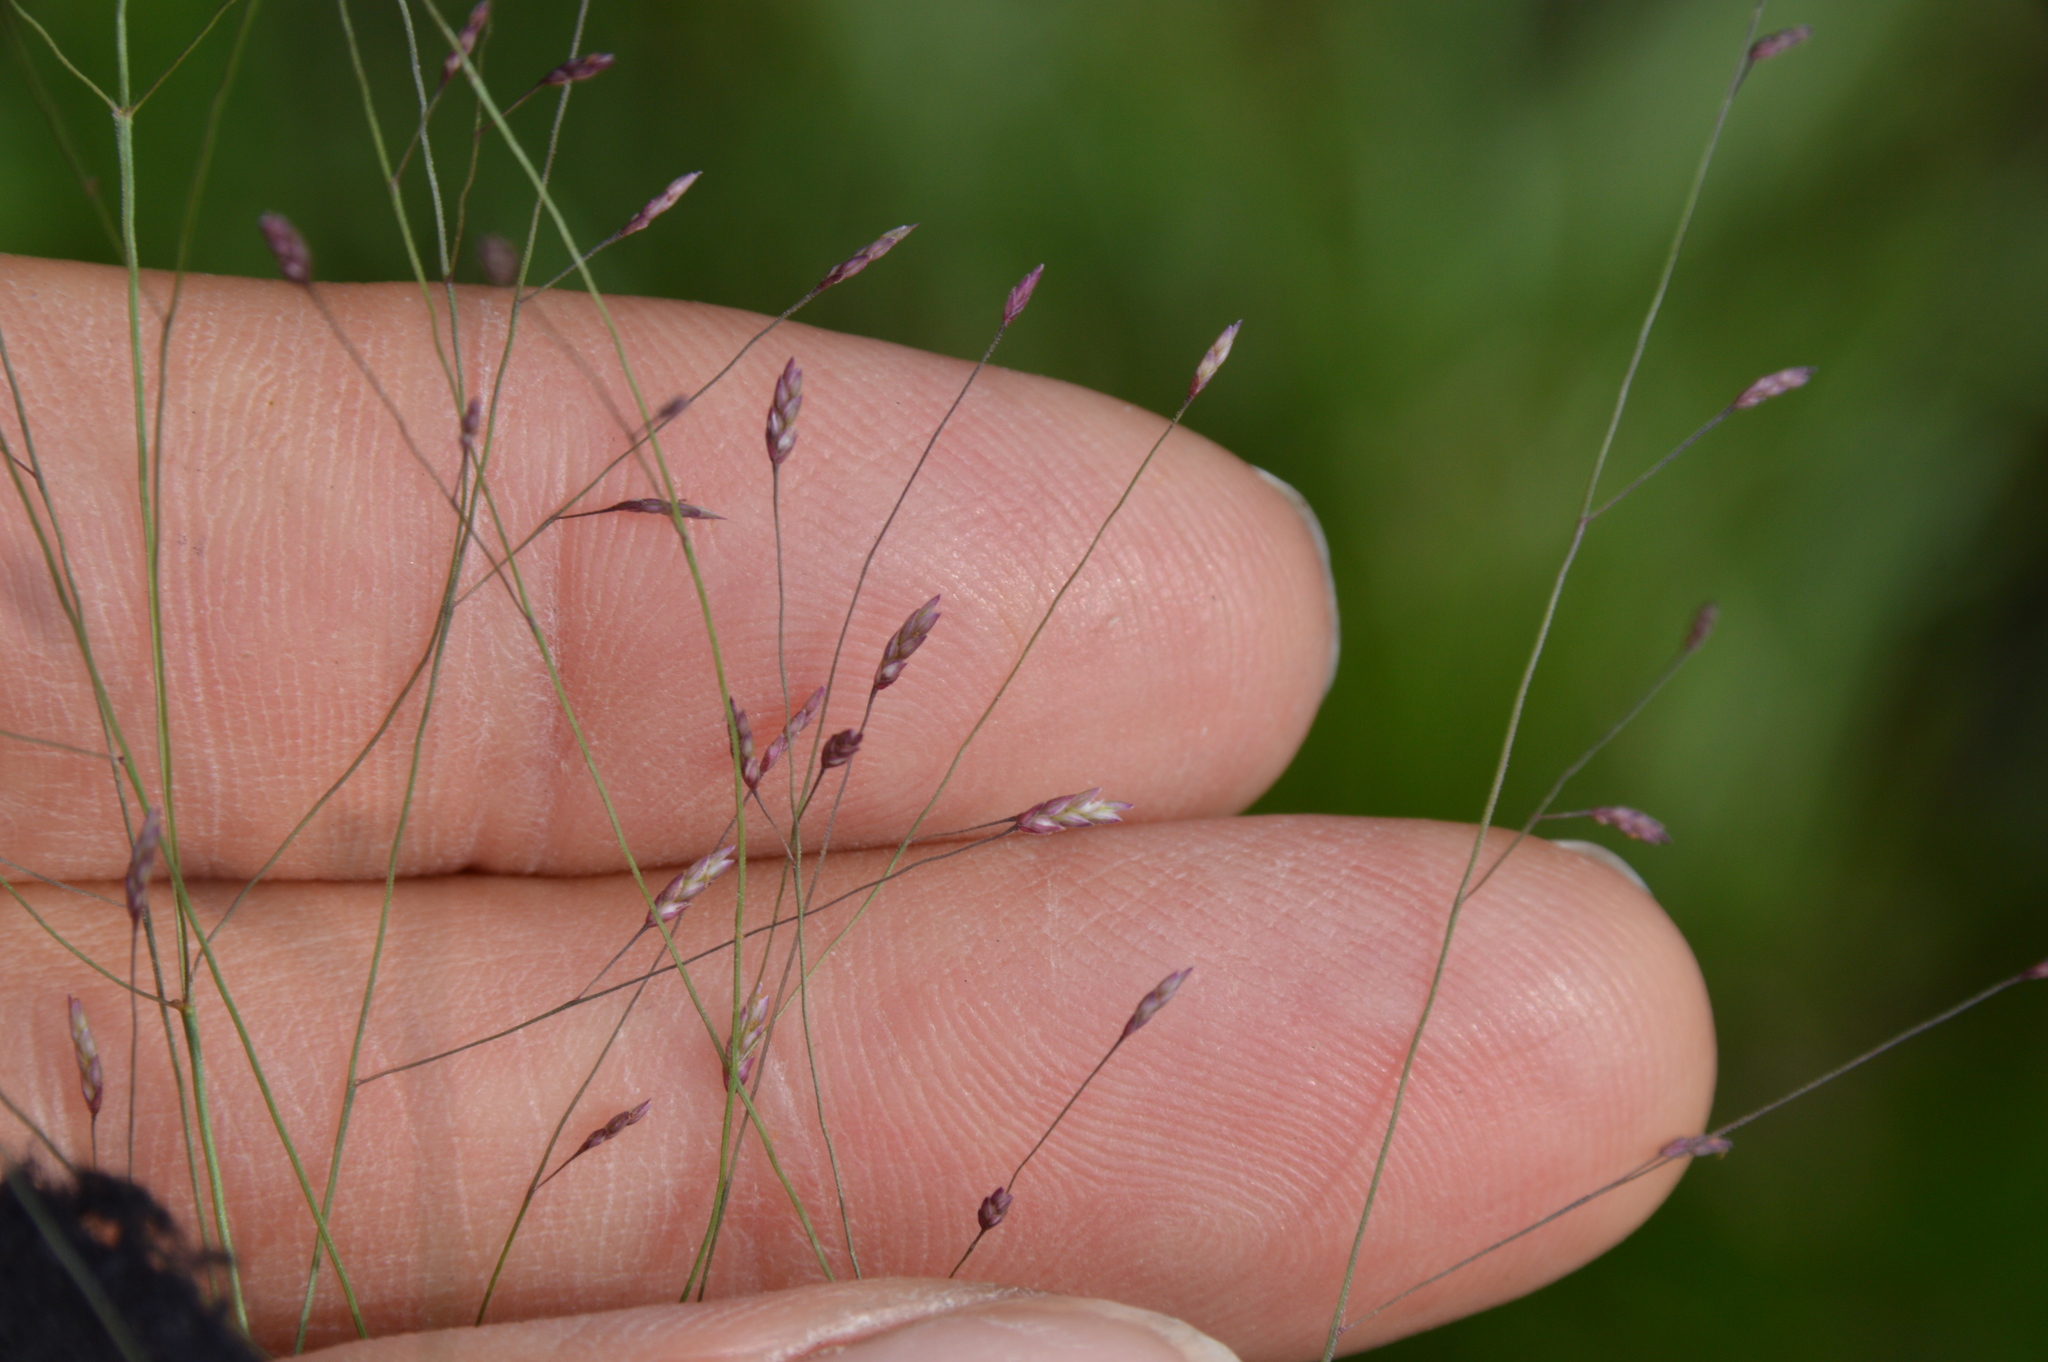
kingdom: Plantae
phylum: Tracheophyta
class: Liliopsida
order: Poales
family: Poaceae
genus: Eragrostis
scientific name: Eragrostis spectabilis
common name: Petticoat-climber
